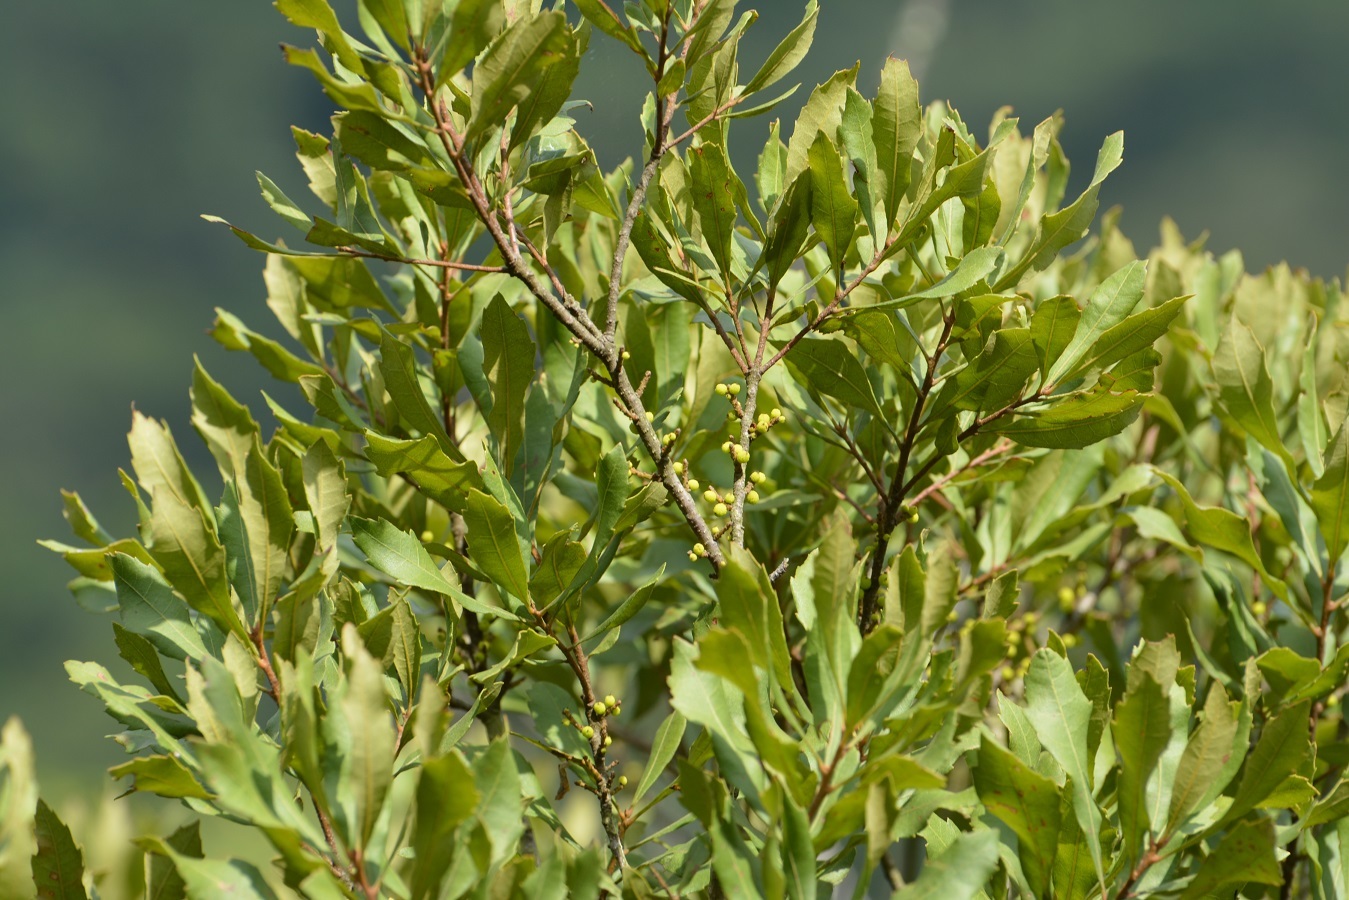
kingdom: Plantae
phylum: Tracheophyta
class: Magnoliopsida
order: Fagales
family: Myricaceae
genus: Morella
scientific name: Morella cerifera
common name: Wax myrtle
